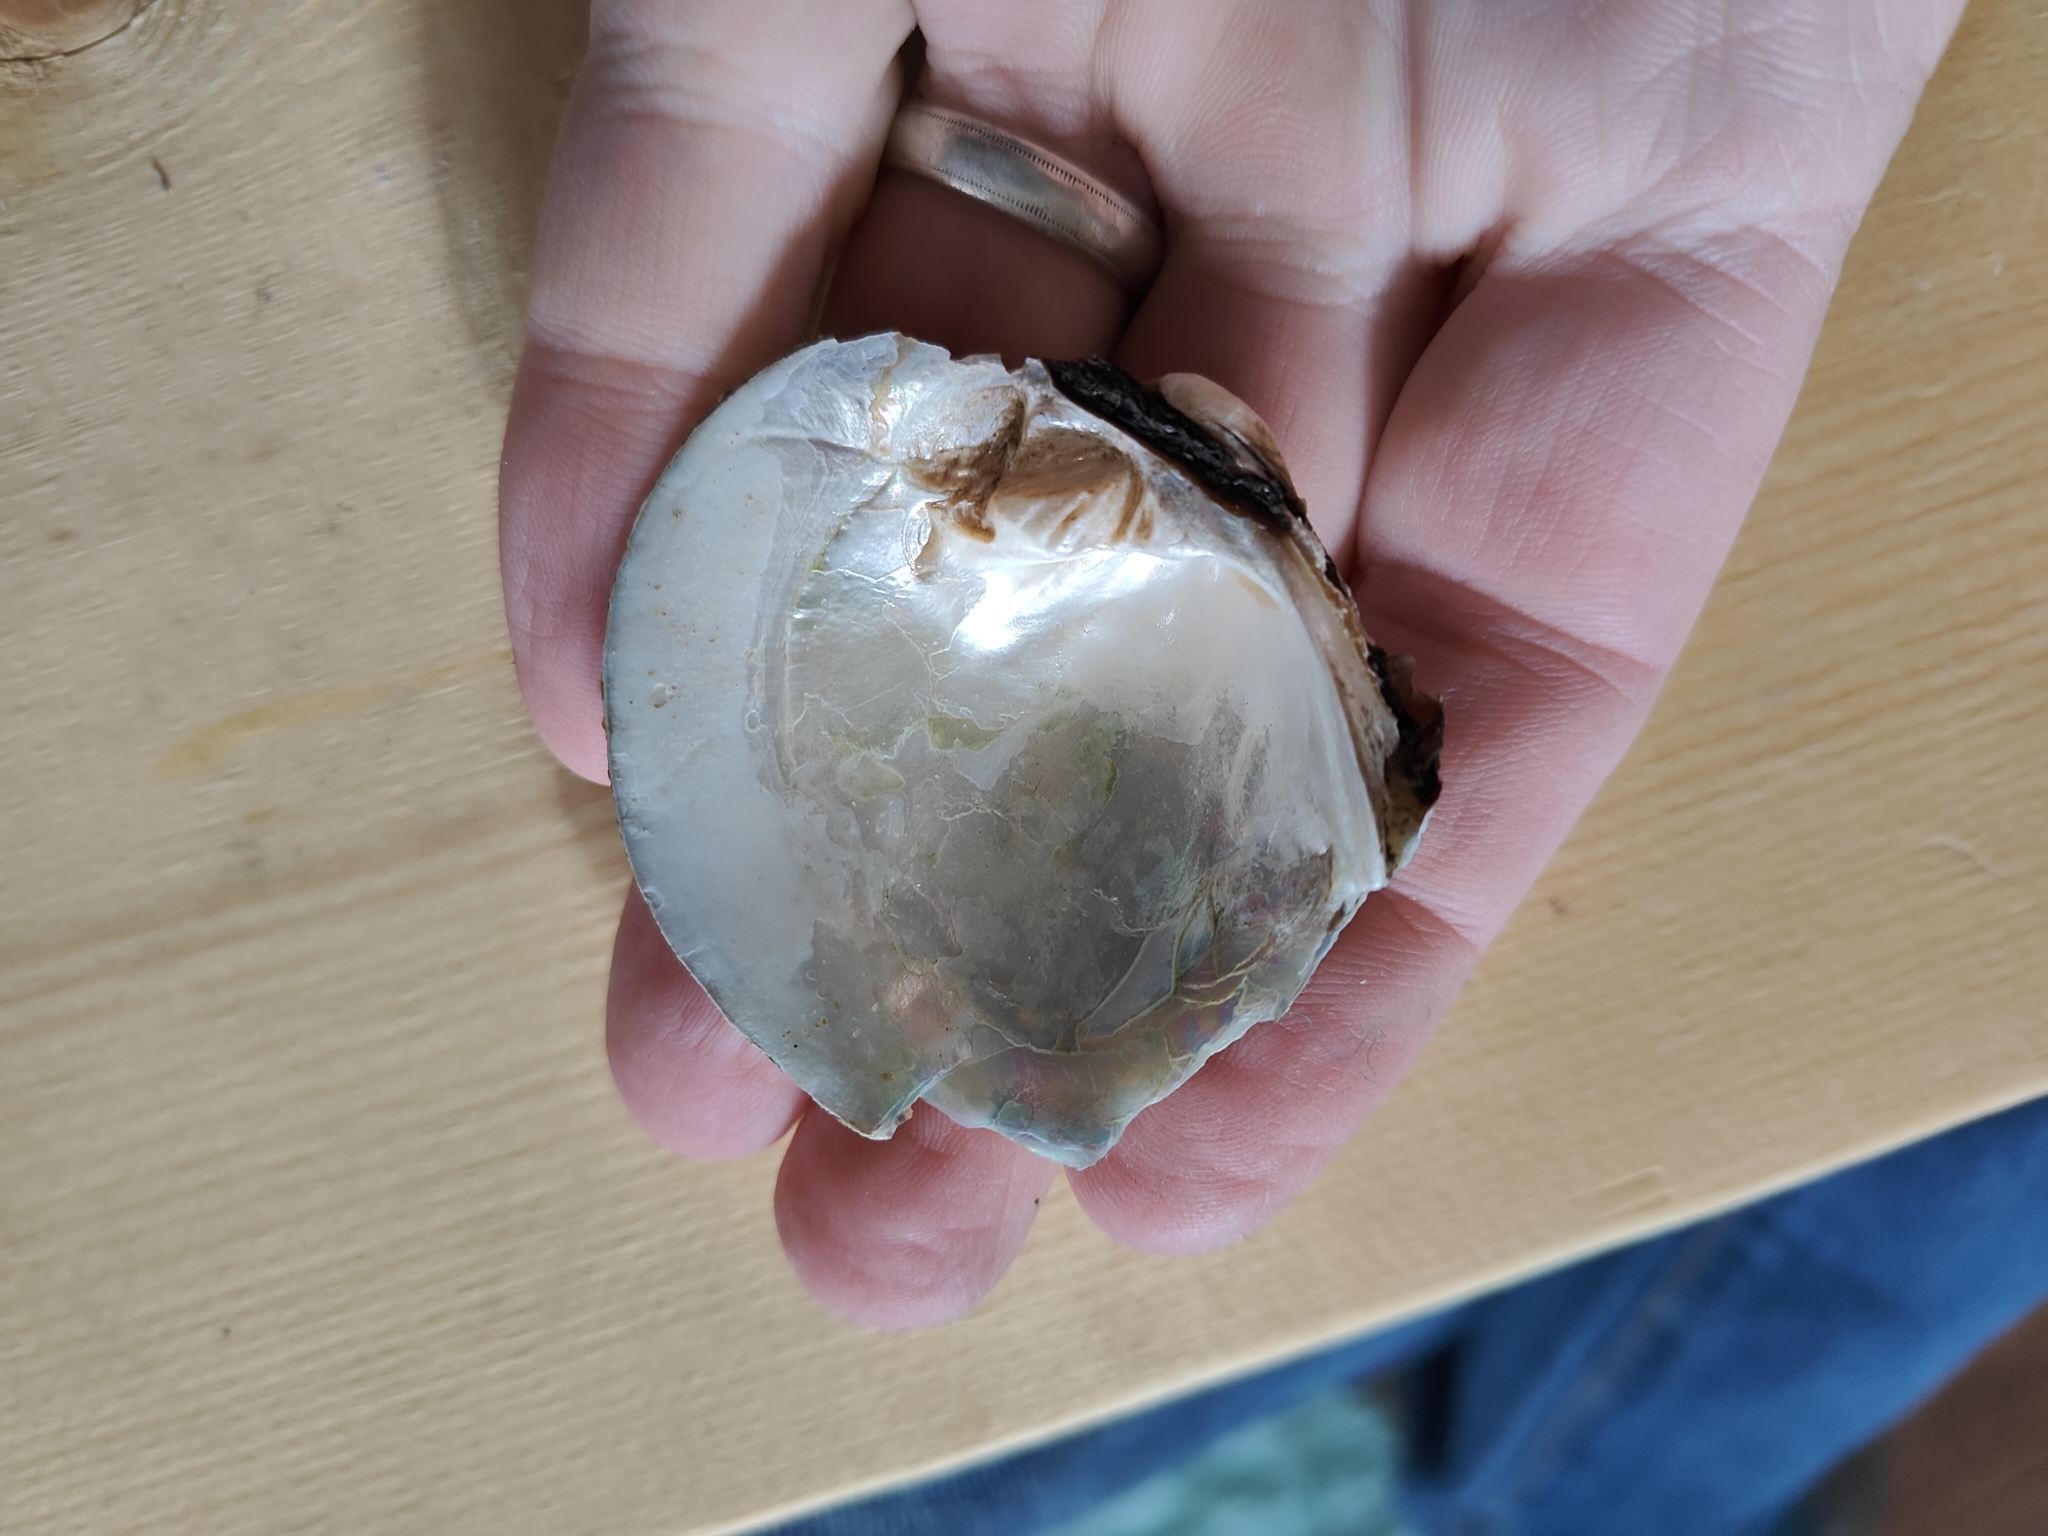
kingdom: Animalia
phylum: Mollusca
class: Bivalvia
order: Unionida
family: Unionidae
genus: Cyclonaias
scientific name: Cyclonaias pustulosa
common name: Pimpleback
